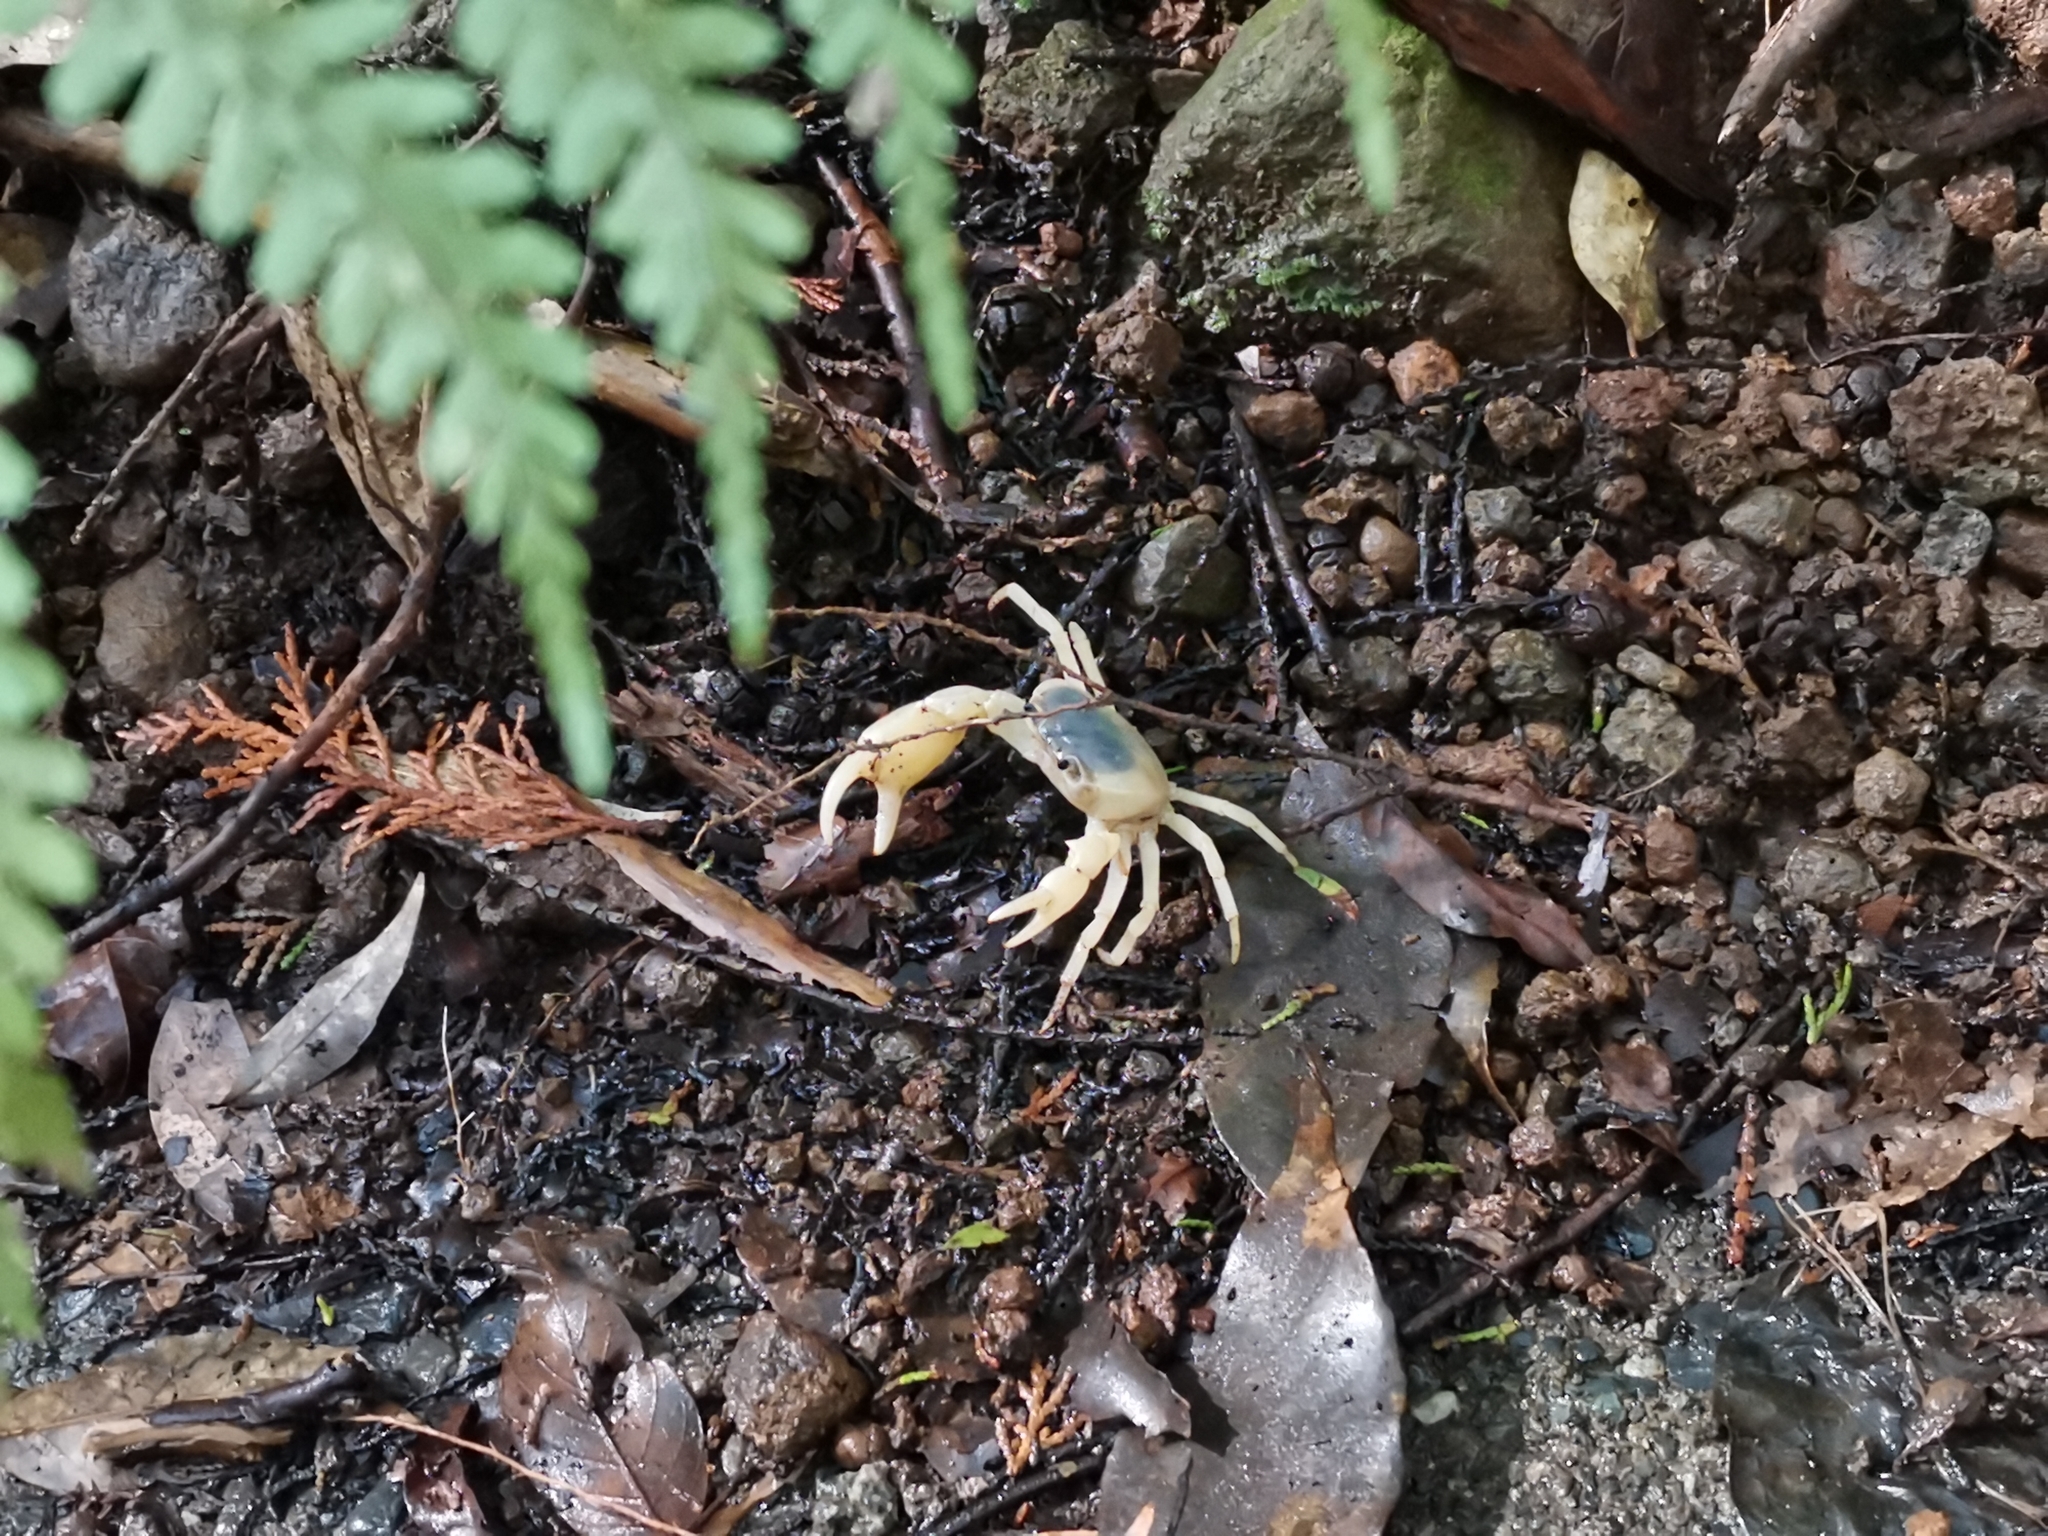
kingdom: Animalia
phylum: Arthropoda
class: Malacostraca
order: Decapoda
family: Potamidae
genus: Geothelphusa
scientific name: Geothelphusa dehaani
